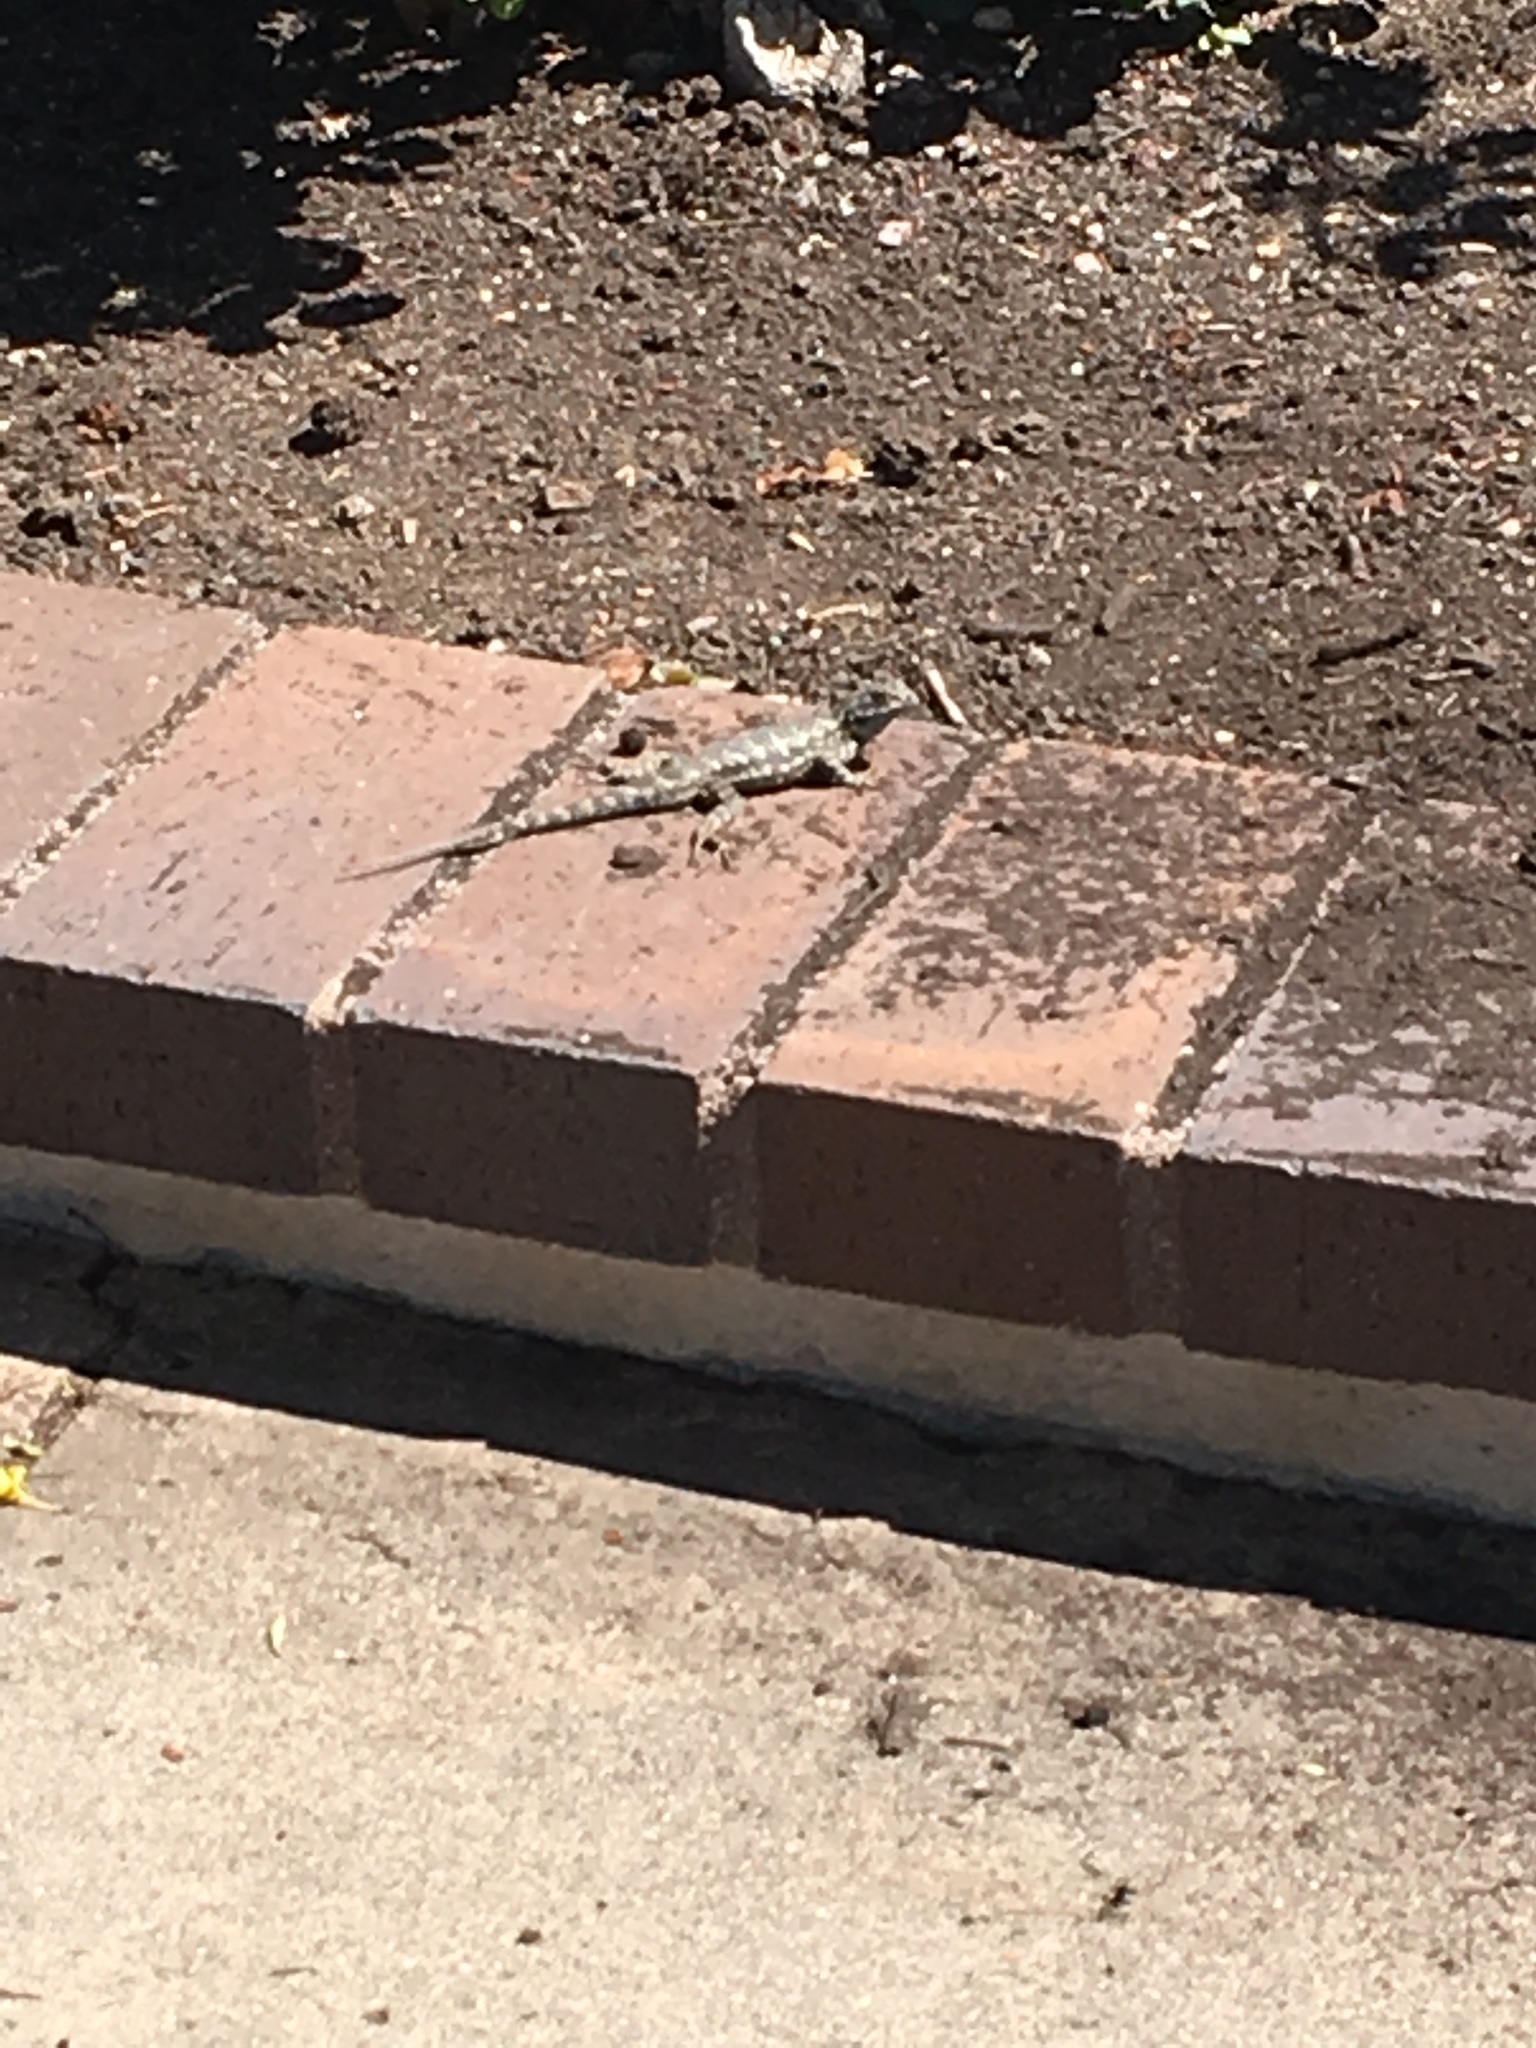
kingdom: Animalia
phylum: Chordata
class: Squamata
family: Phrynosomatidae
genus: Sceloporus
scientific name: Sceloporus occidentalis
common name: Western fence lizard
